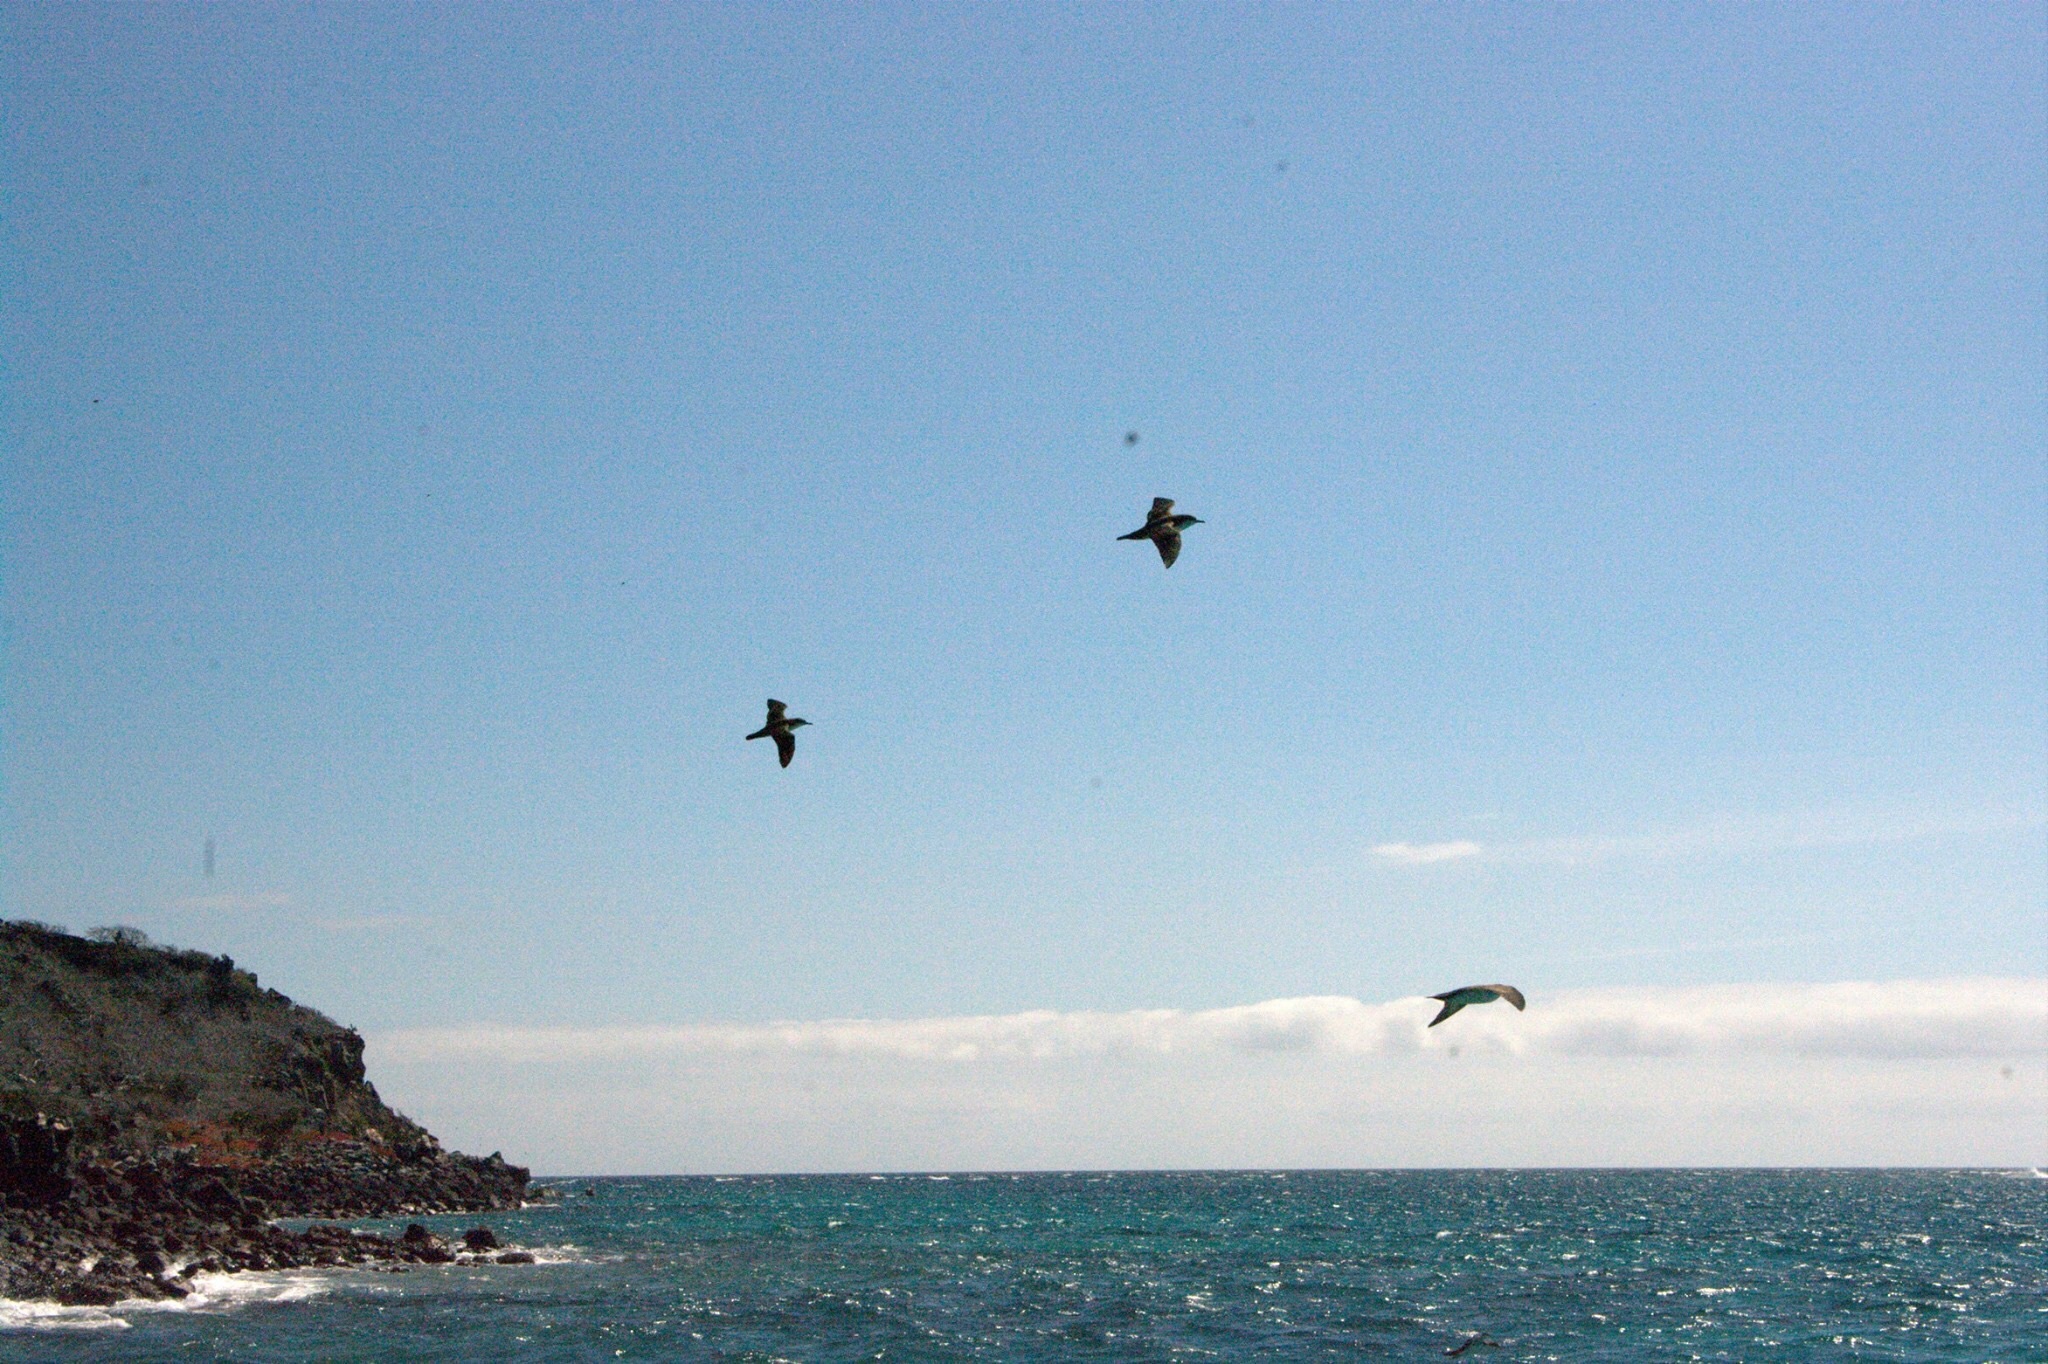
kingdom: Animalia
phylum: Chordata
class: Aves
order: Procellariiformes
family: Procellariidae
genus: Puffinus
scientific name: Puffinus subalaris
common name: Galapagos shearwater
